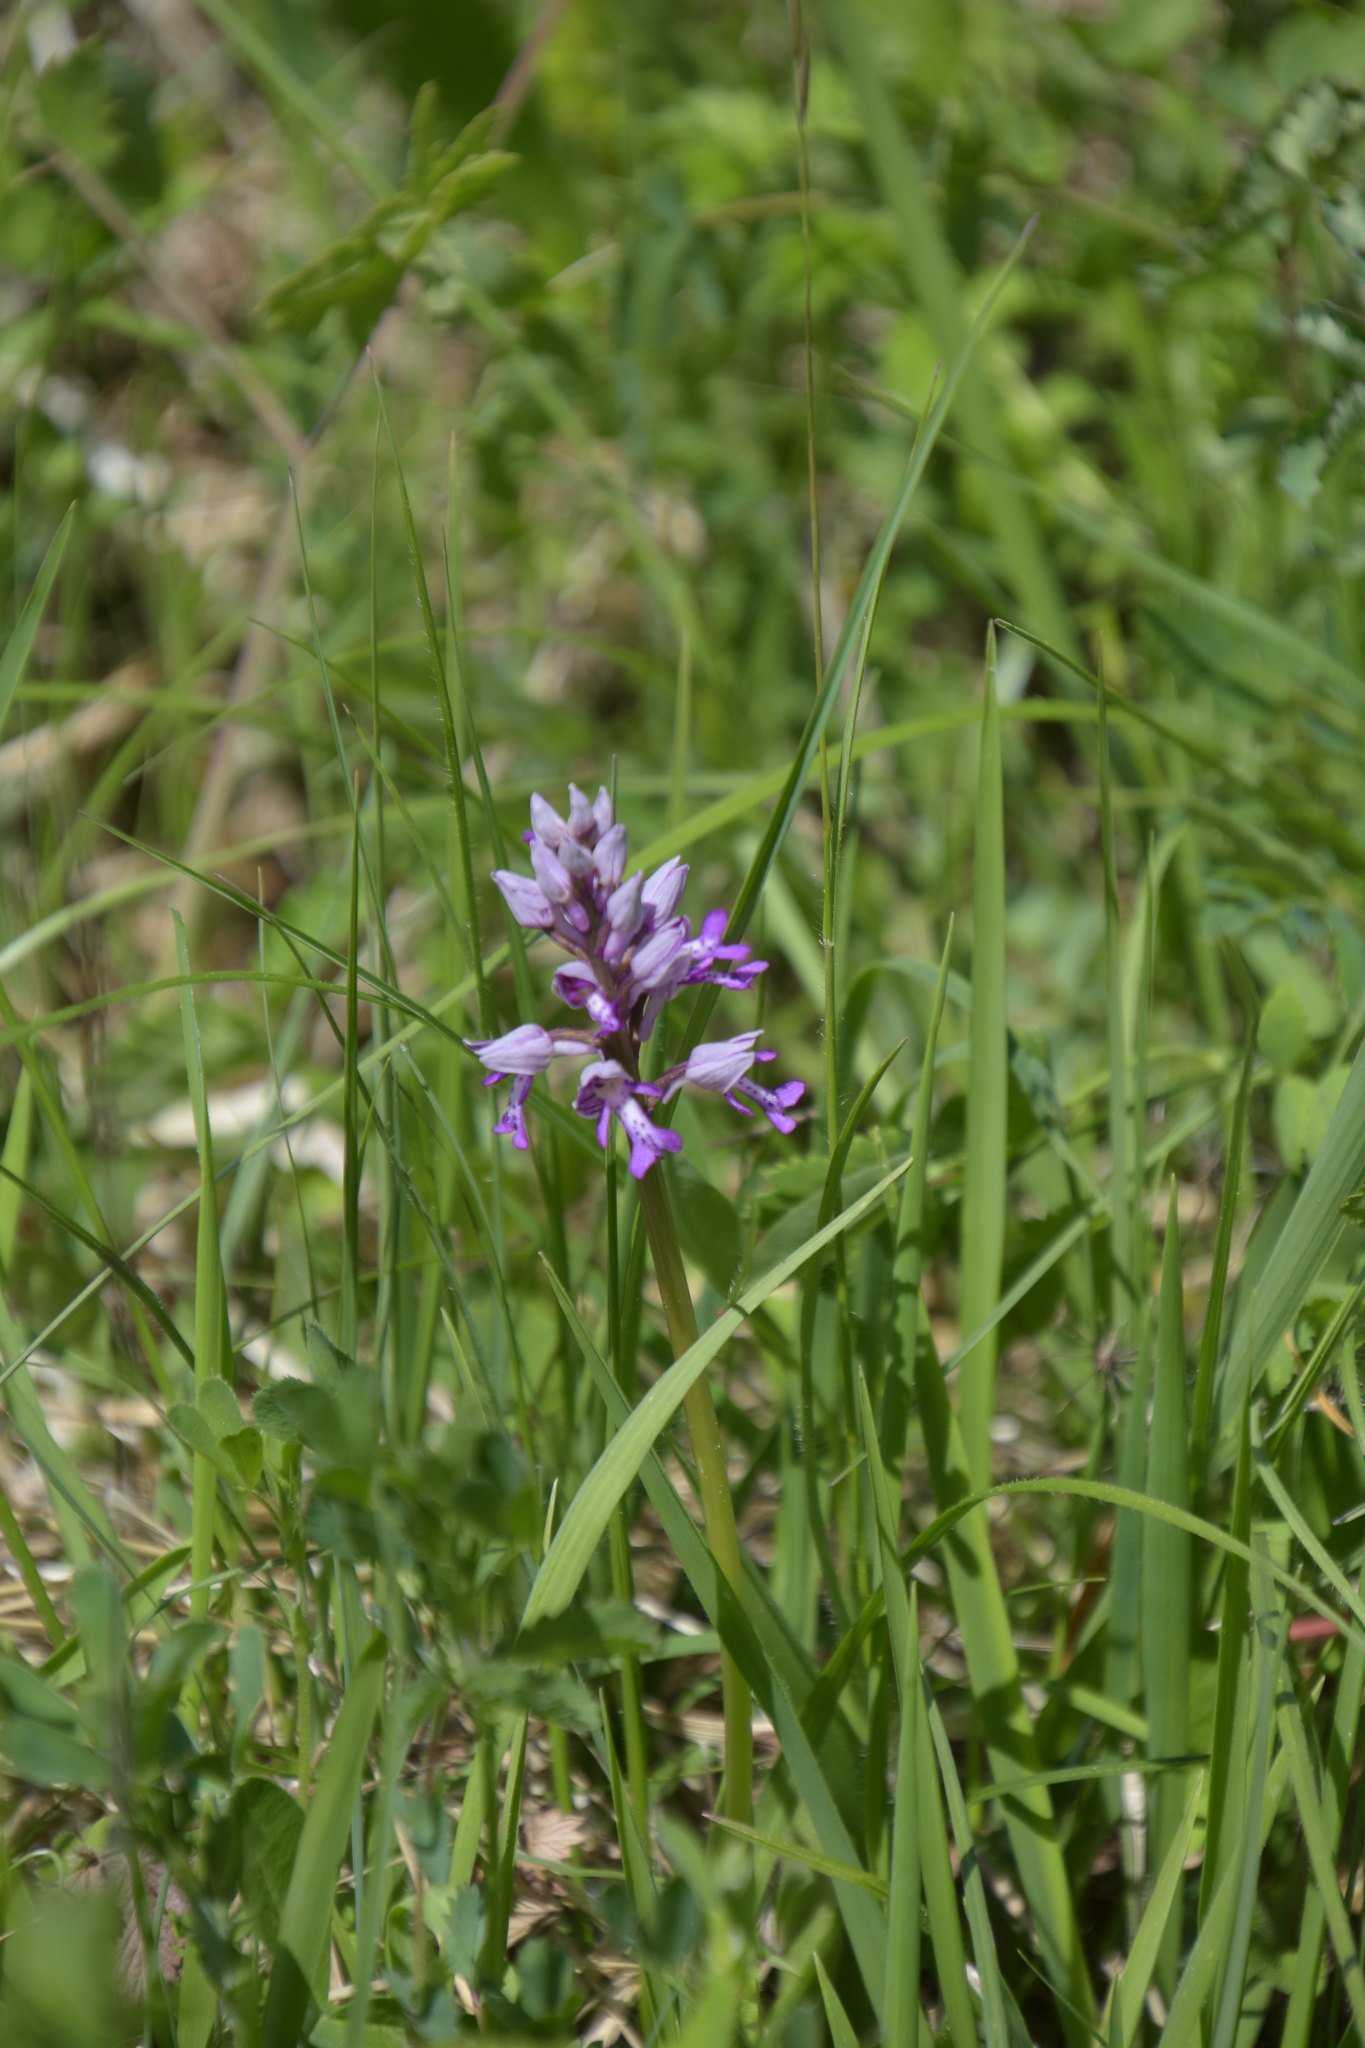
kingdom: Plantae
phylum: Tracheophyta
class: Liliopsida
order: Asparagales
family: Orchidaceae
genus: Orchis
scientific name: Orchis militaris
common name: Military orchid
